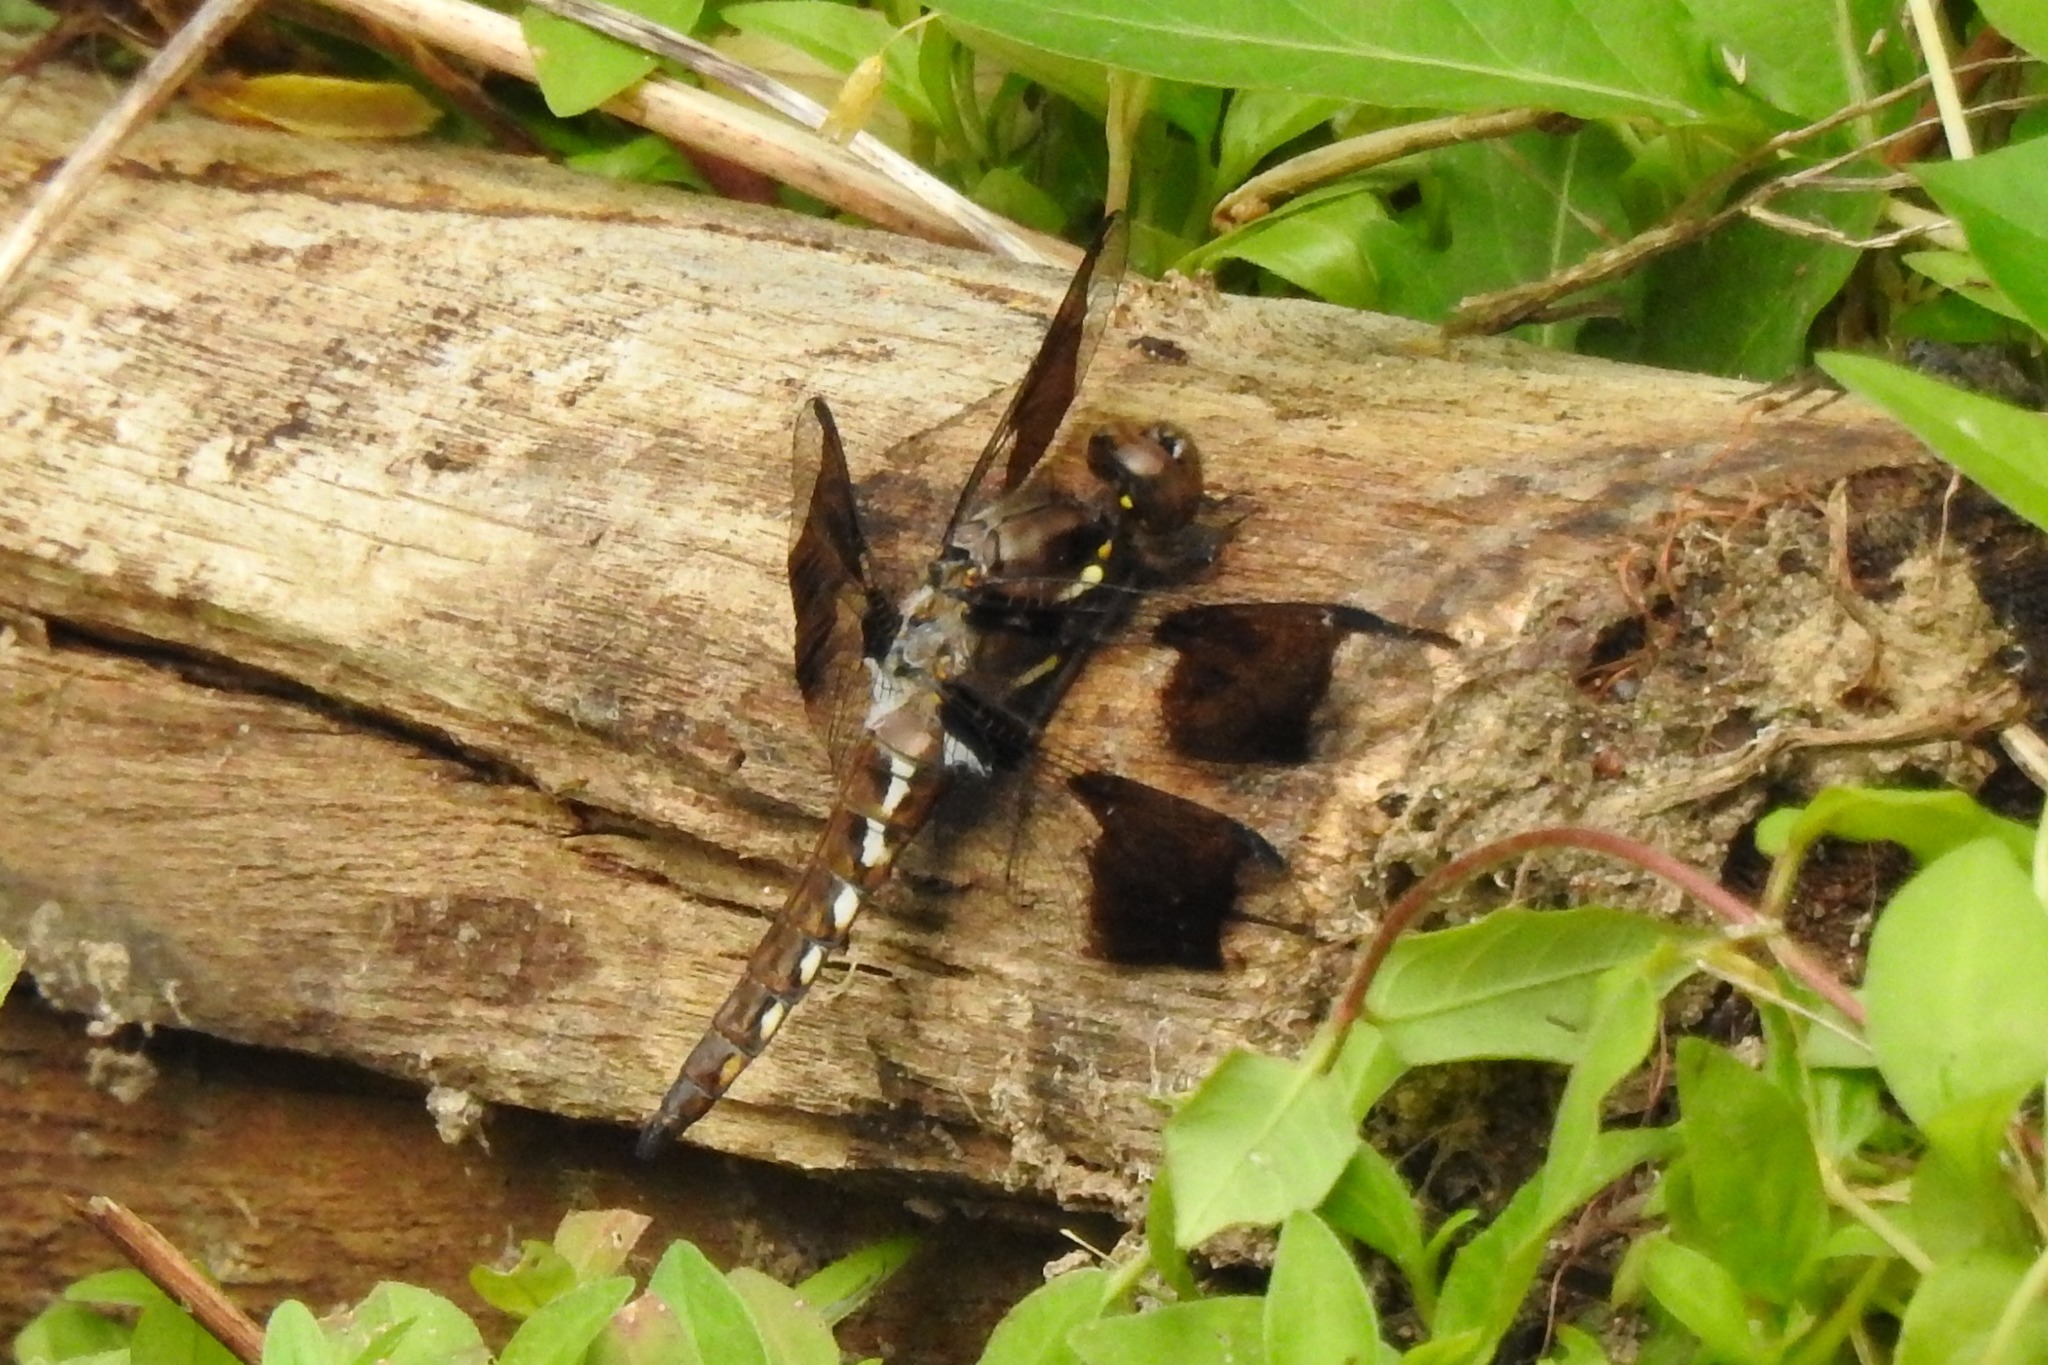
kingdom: Animalia
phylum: Arthropoda
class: Insecta
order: Odonata
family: Libellulidae
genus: Plathemis
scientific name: Plathemis lydia
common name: Common whitetail
